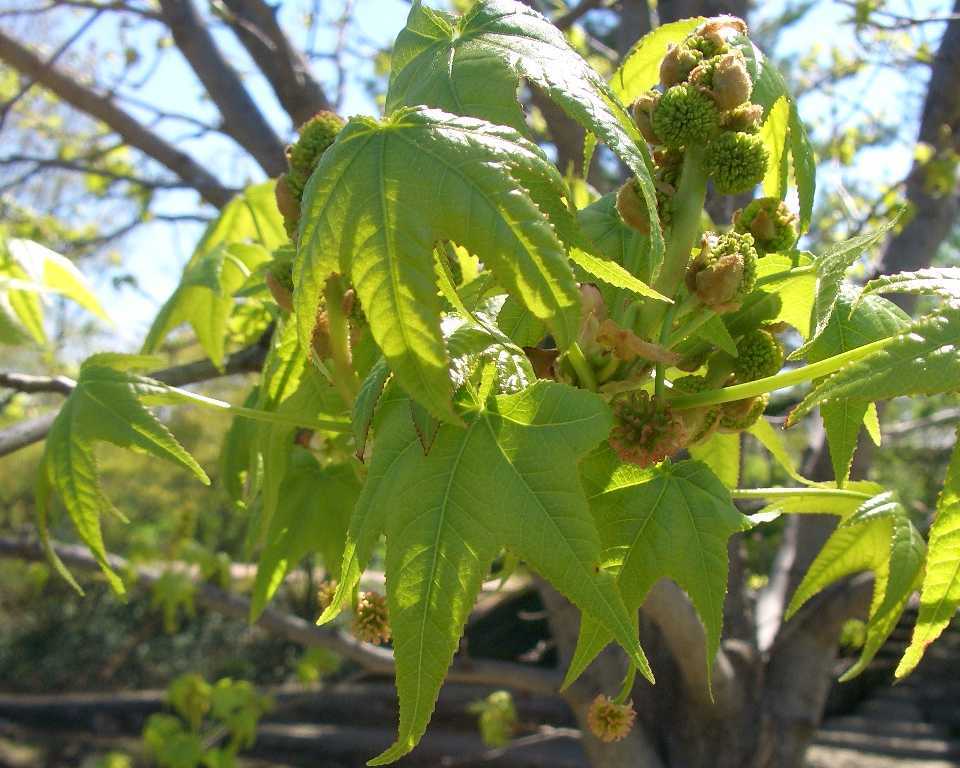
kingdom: Plantae
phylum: Tracheophyta
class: Magnoliopsida
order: Saxifragales
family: Altingiaceae
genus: Liquidambar
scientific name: Liquidambar styraciflua
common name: Sweet gum
